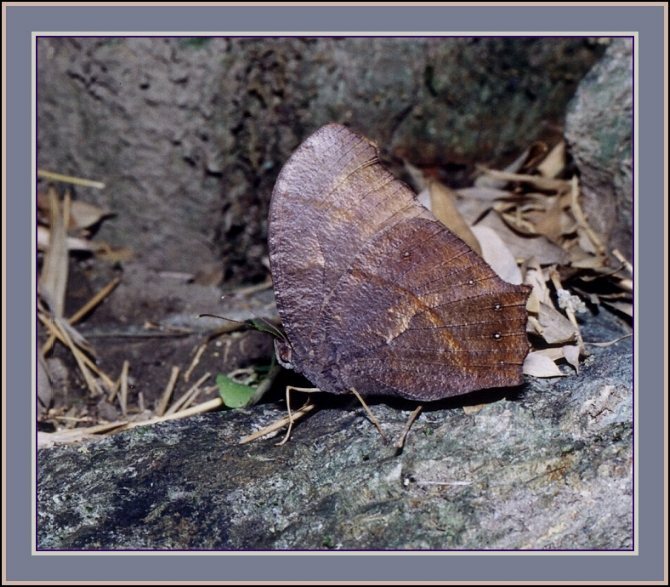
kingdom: Animalia
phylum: Arthropoda
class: Insecta
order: Lepidoptera
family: Nymphalidae
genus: Melanitis
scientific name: Melanitis phedima
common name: Dark evening brown
